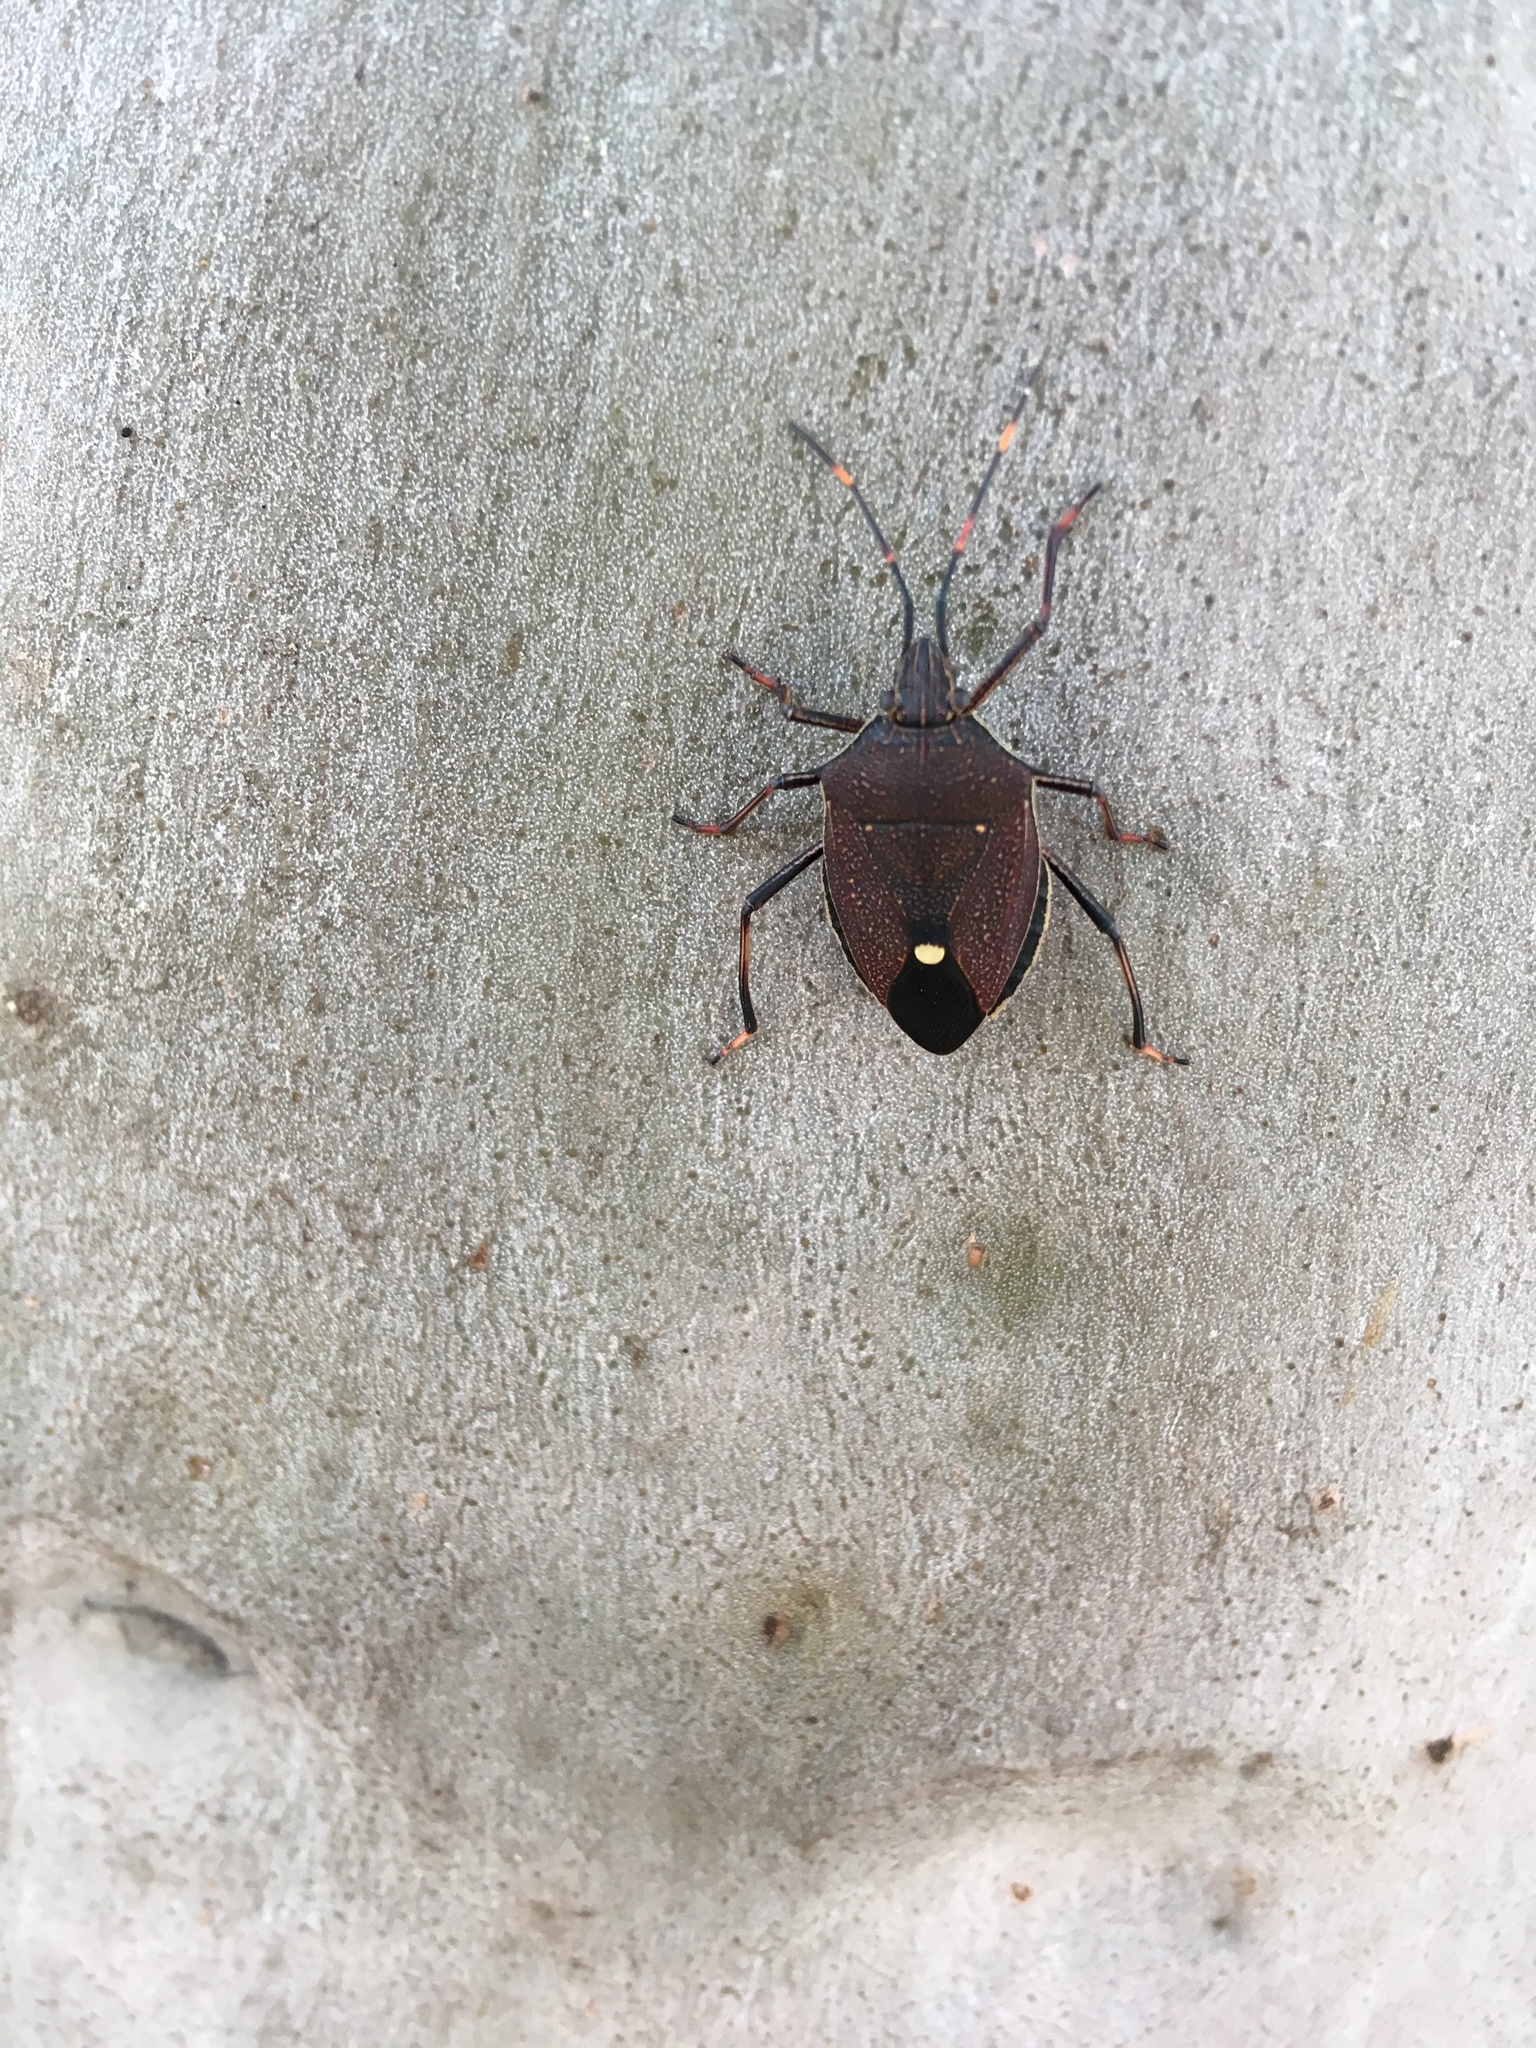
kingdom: Animalia
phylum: Arthropoda
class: Insecta
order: Hemiptera
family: Pentatomidae
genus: Poecilometis
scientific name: Poecilometis
